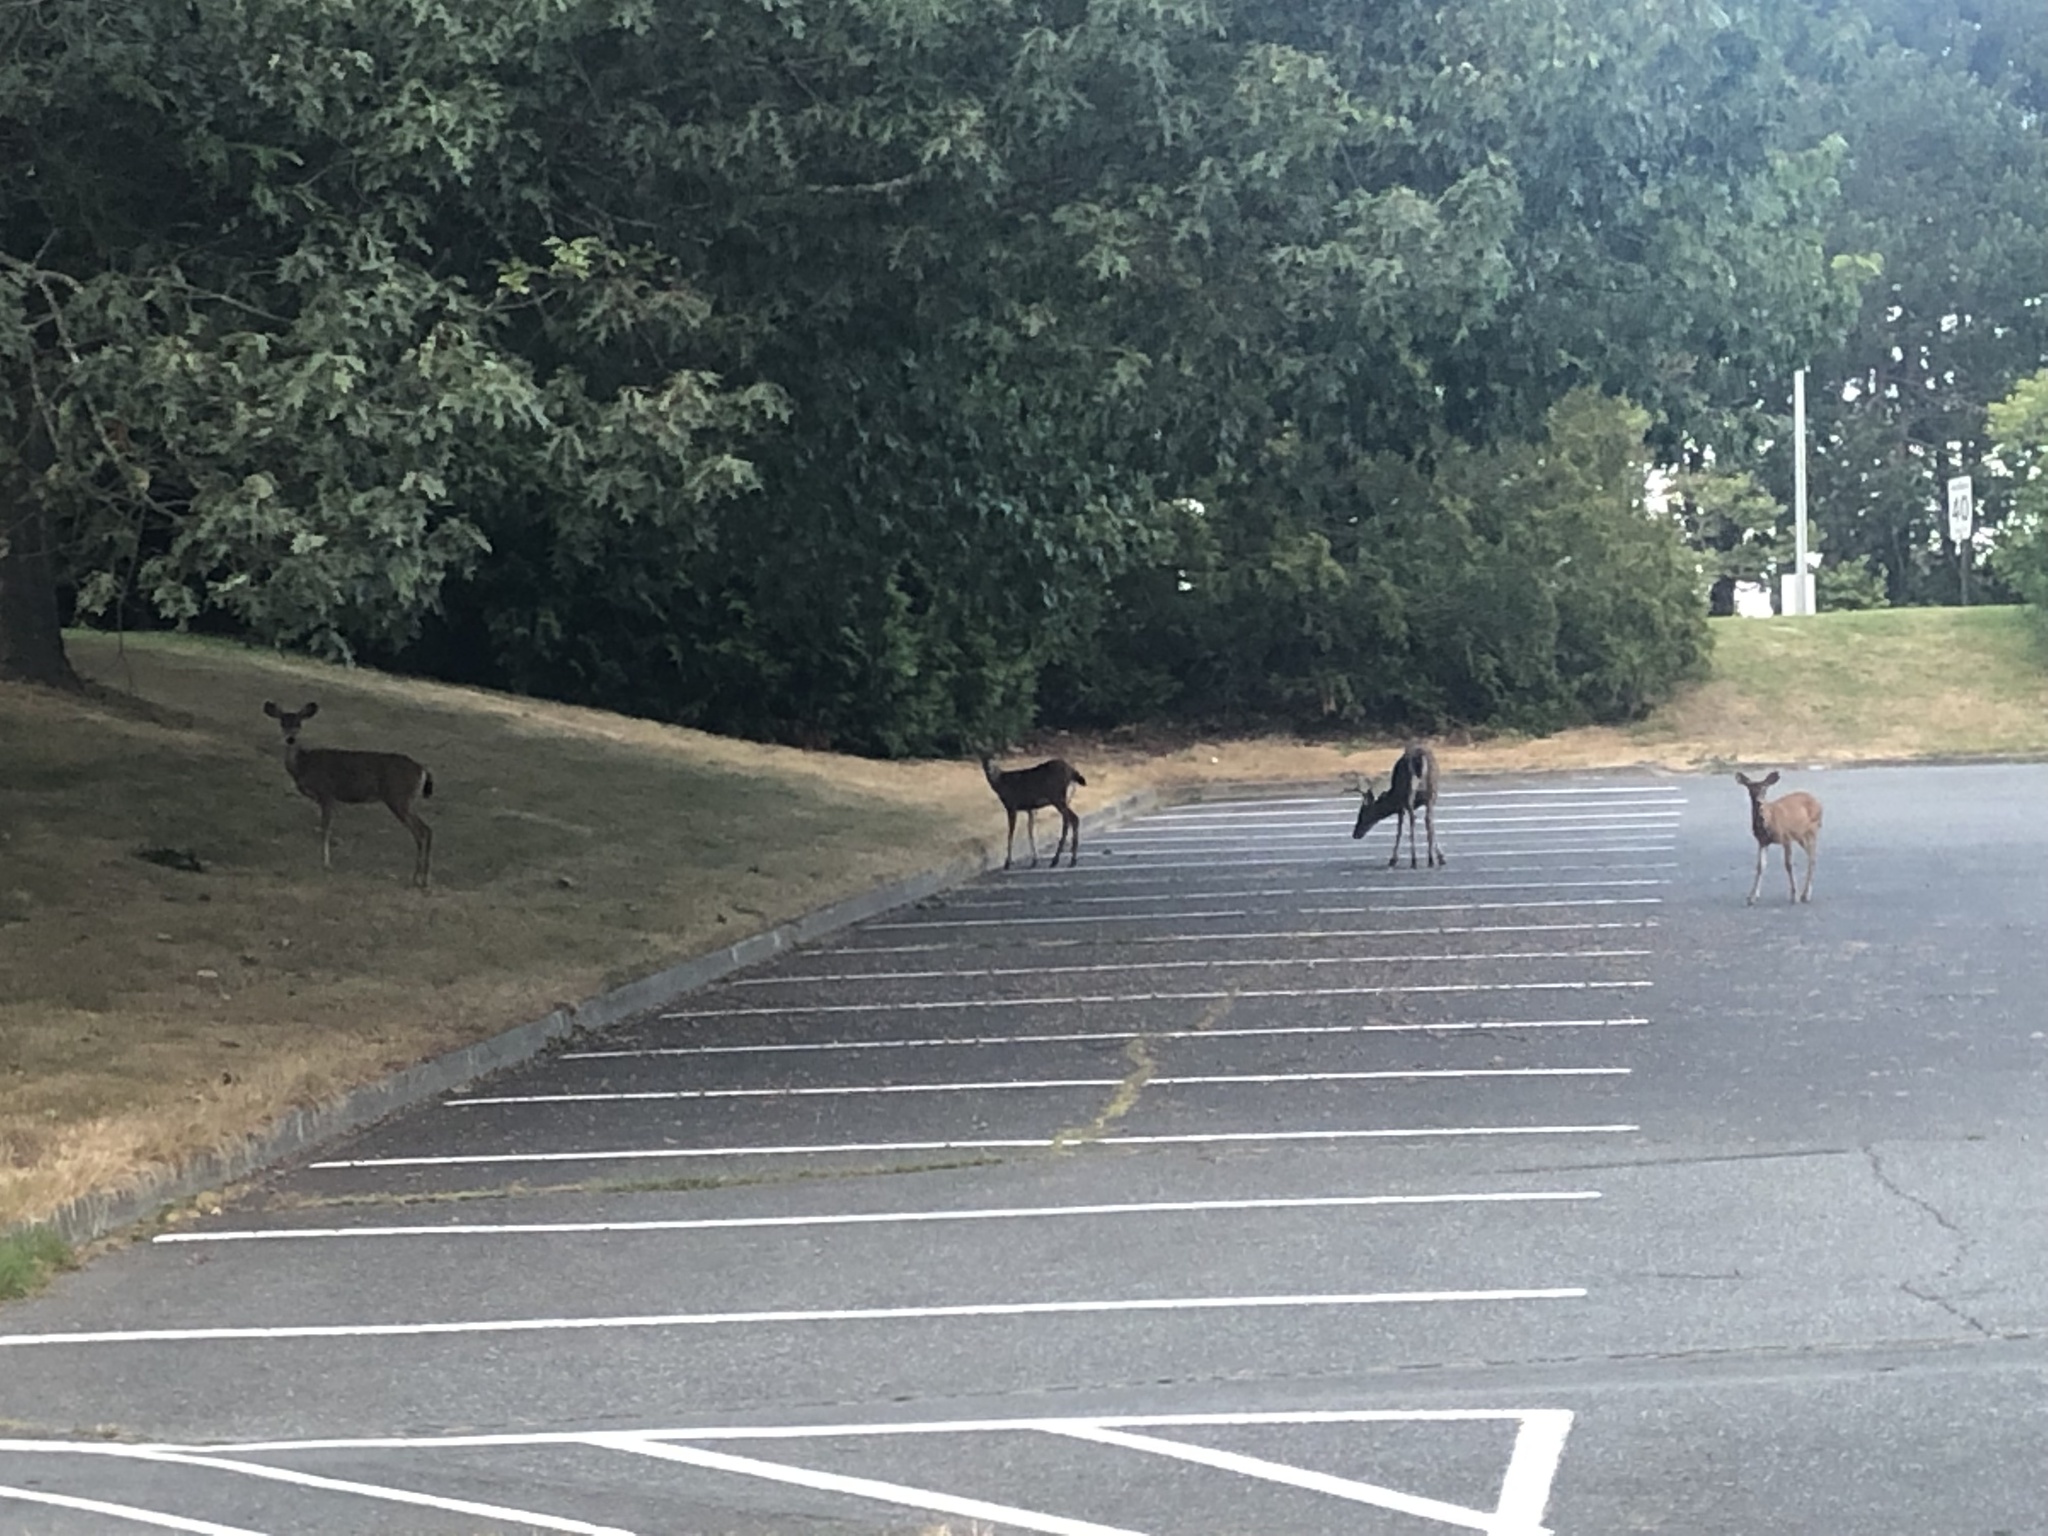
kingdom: Animalia
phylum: Chordata
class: Mammalia
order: Artiodactyla
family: Cervidae
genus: Odocoileus
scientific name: Odocoileus hemionus
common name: Mule deer
